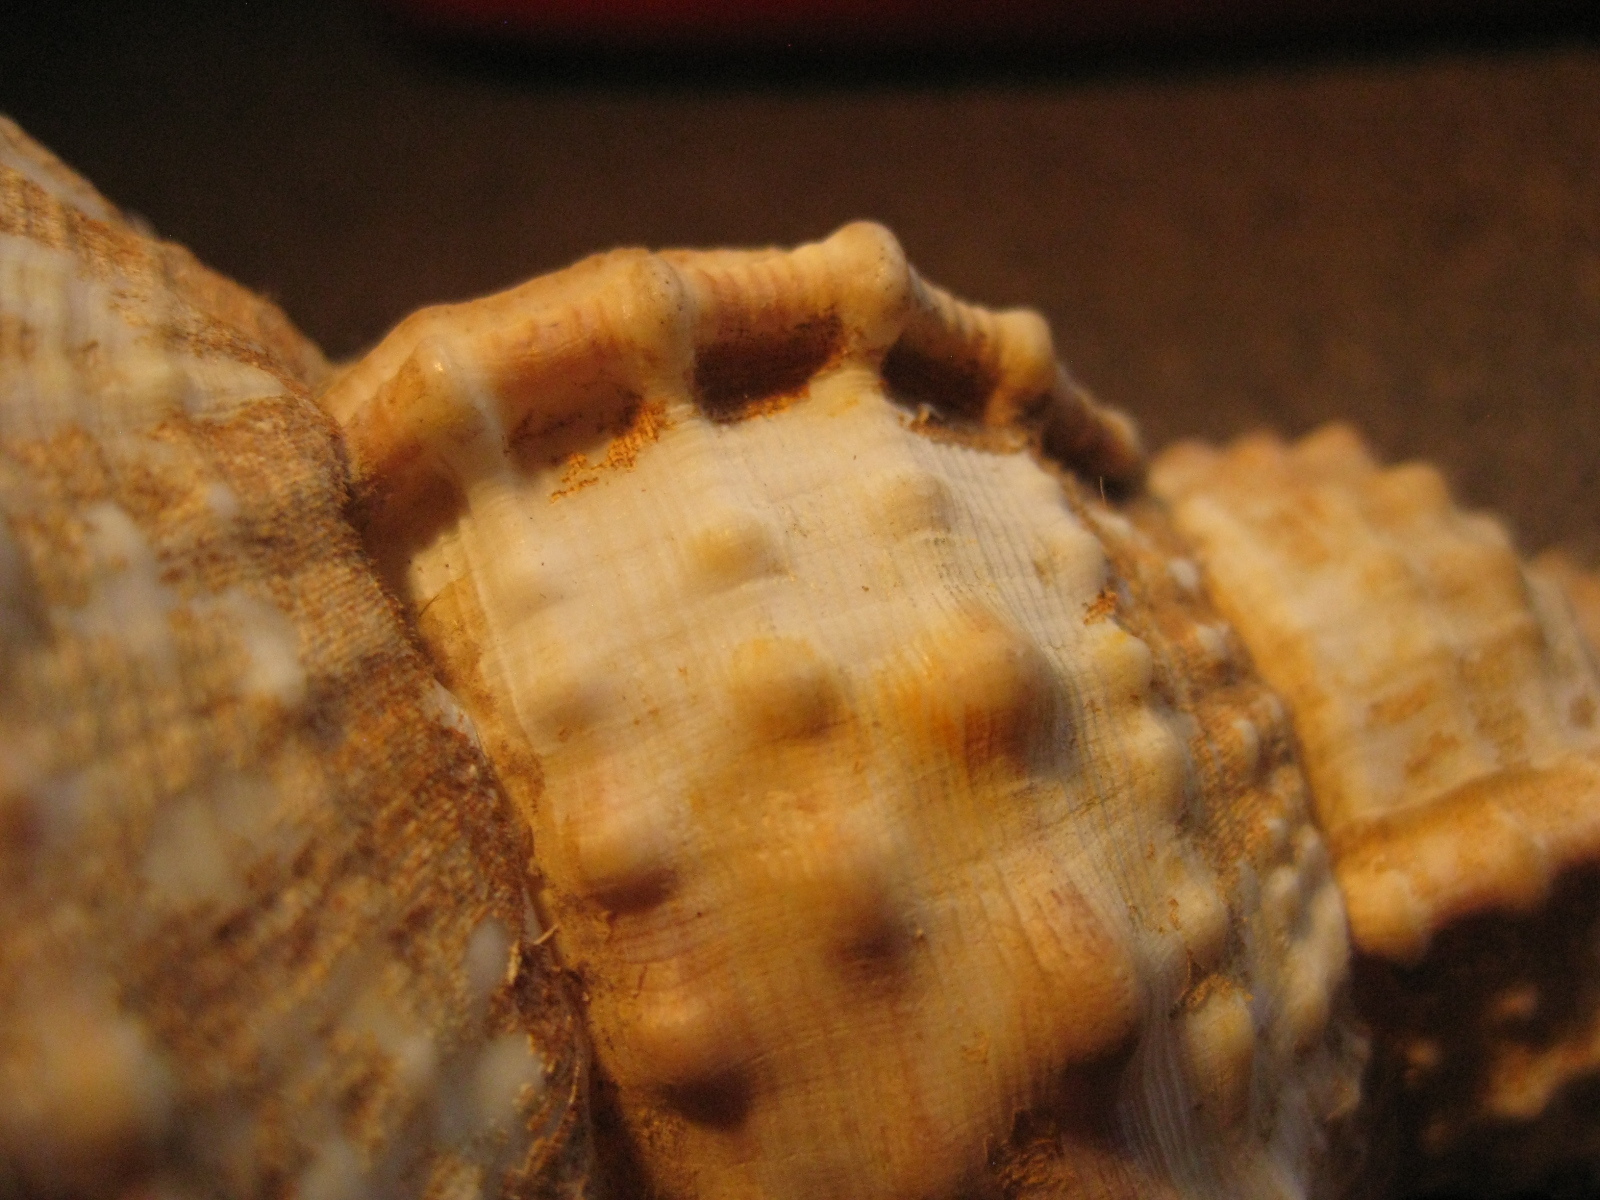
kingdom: Animalia
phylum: Mollusca
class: Gastropoda
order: Littorinimorpha
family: Ranellidae
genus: Ranella
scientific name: Ranella olearium
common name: Giant frogsnail
